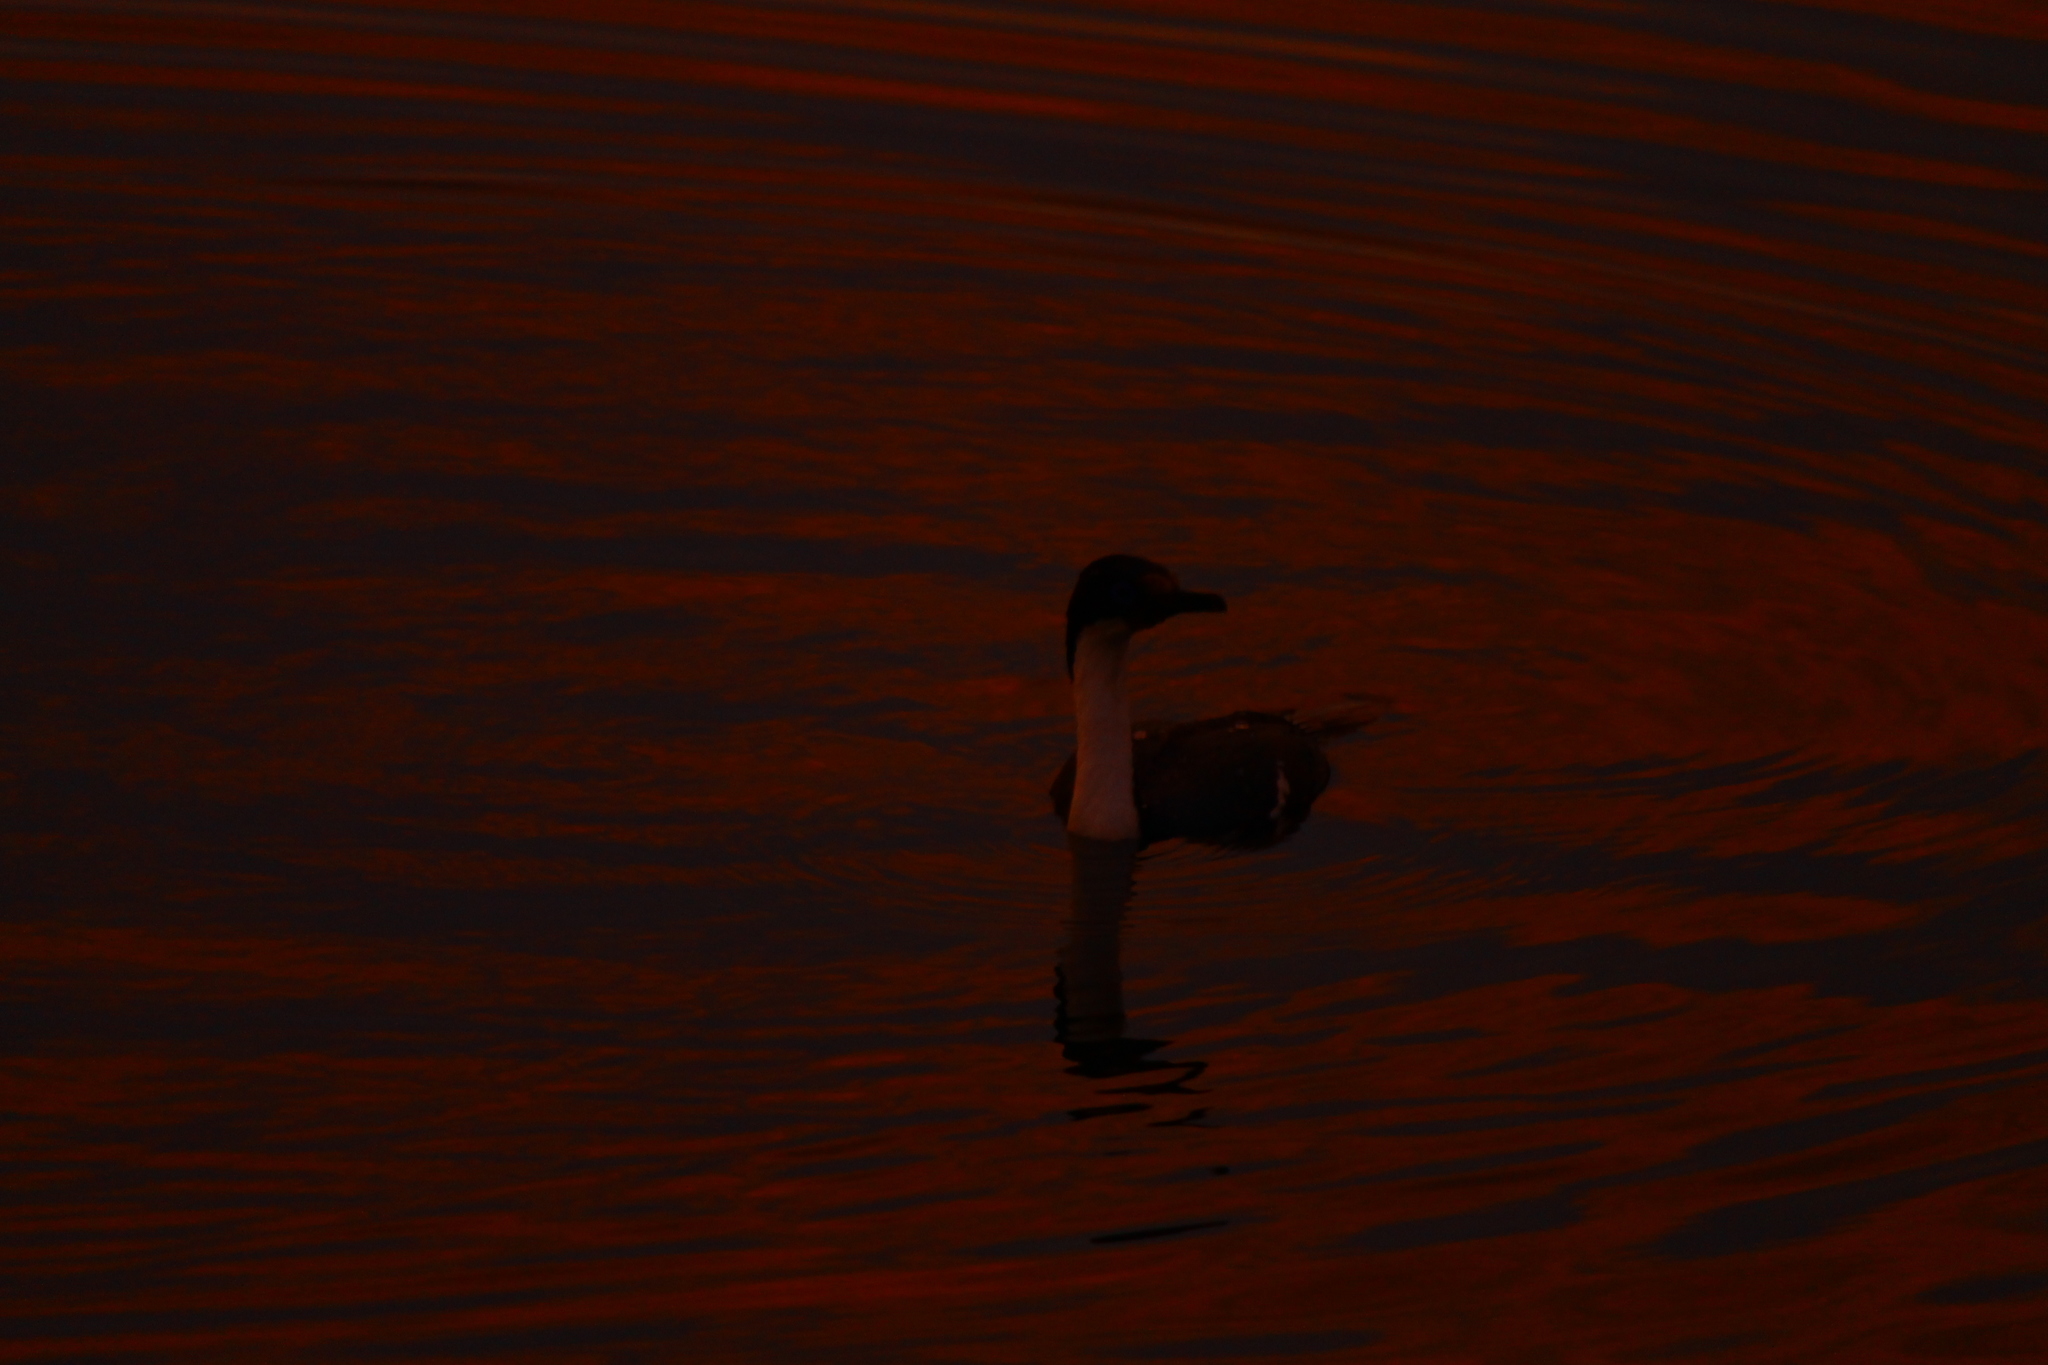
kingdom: Animalia
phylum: Chordata
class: Aves
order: Suliformes
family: Phalacrocoracidae
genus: Leucocarbo
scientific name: Leucocarbo atriceps
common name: Imperial shag
